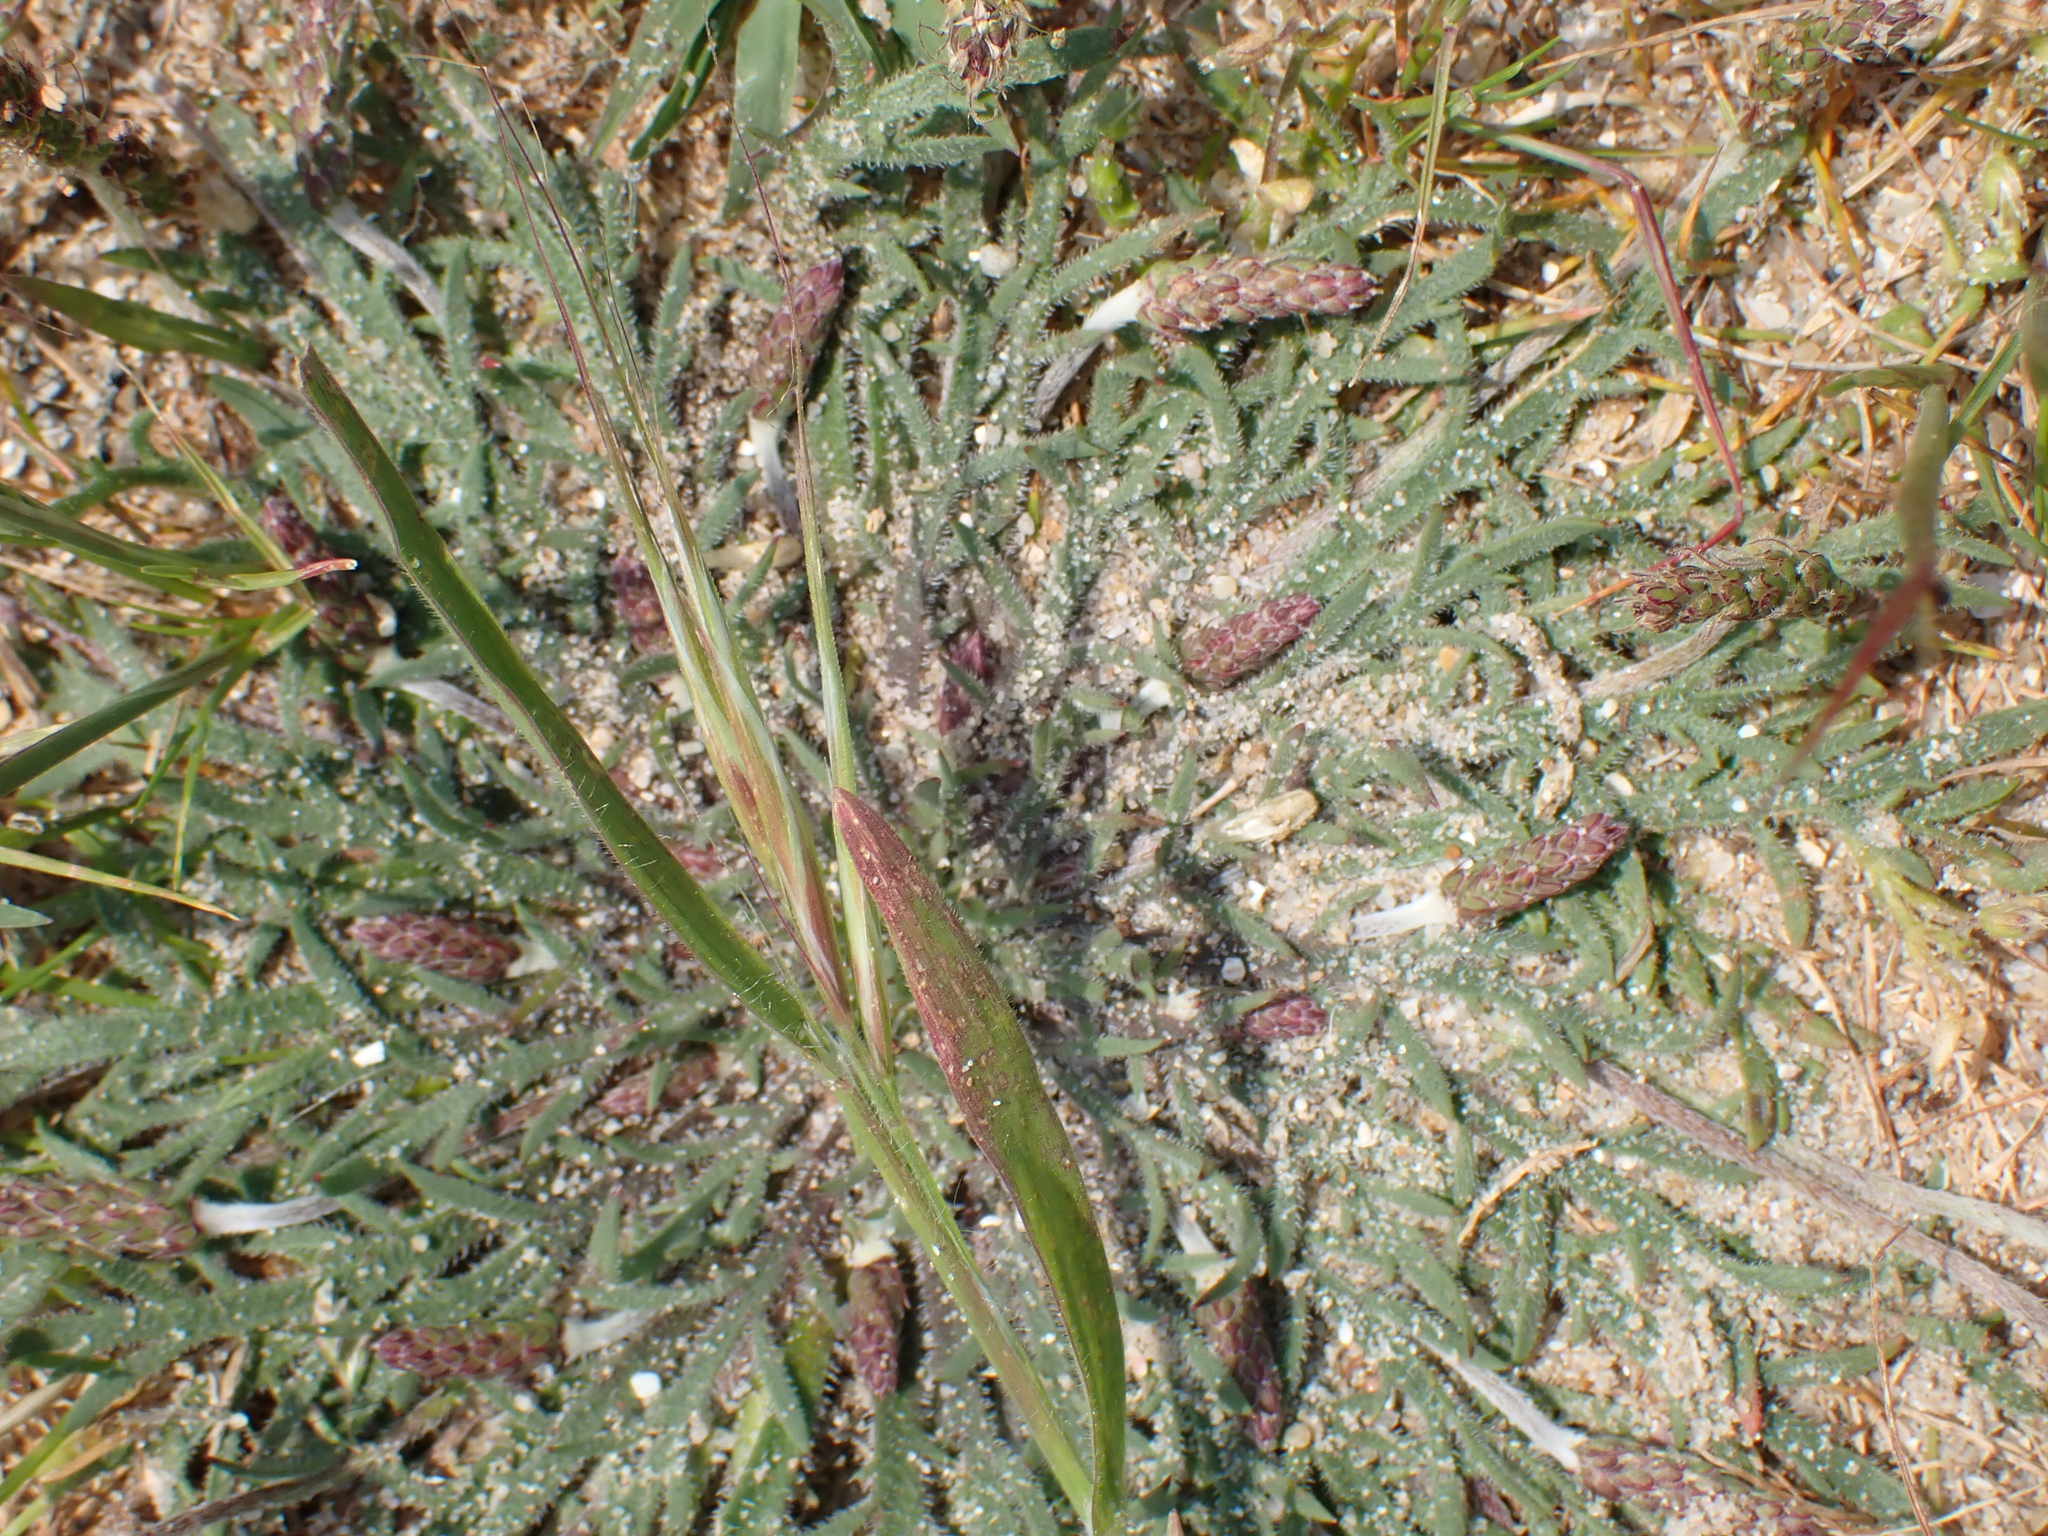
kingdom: Plantae
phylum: Tracheophyta
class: Magnoliopsida
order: Lamiales
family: Plantaginaceae
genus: Plantago
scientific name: Plantago coronopus
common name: Buck's-horn plantain
